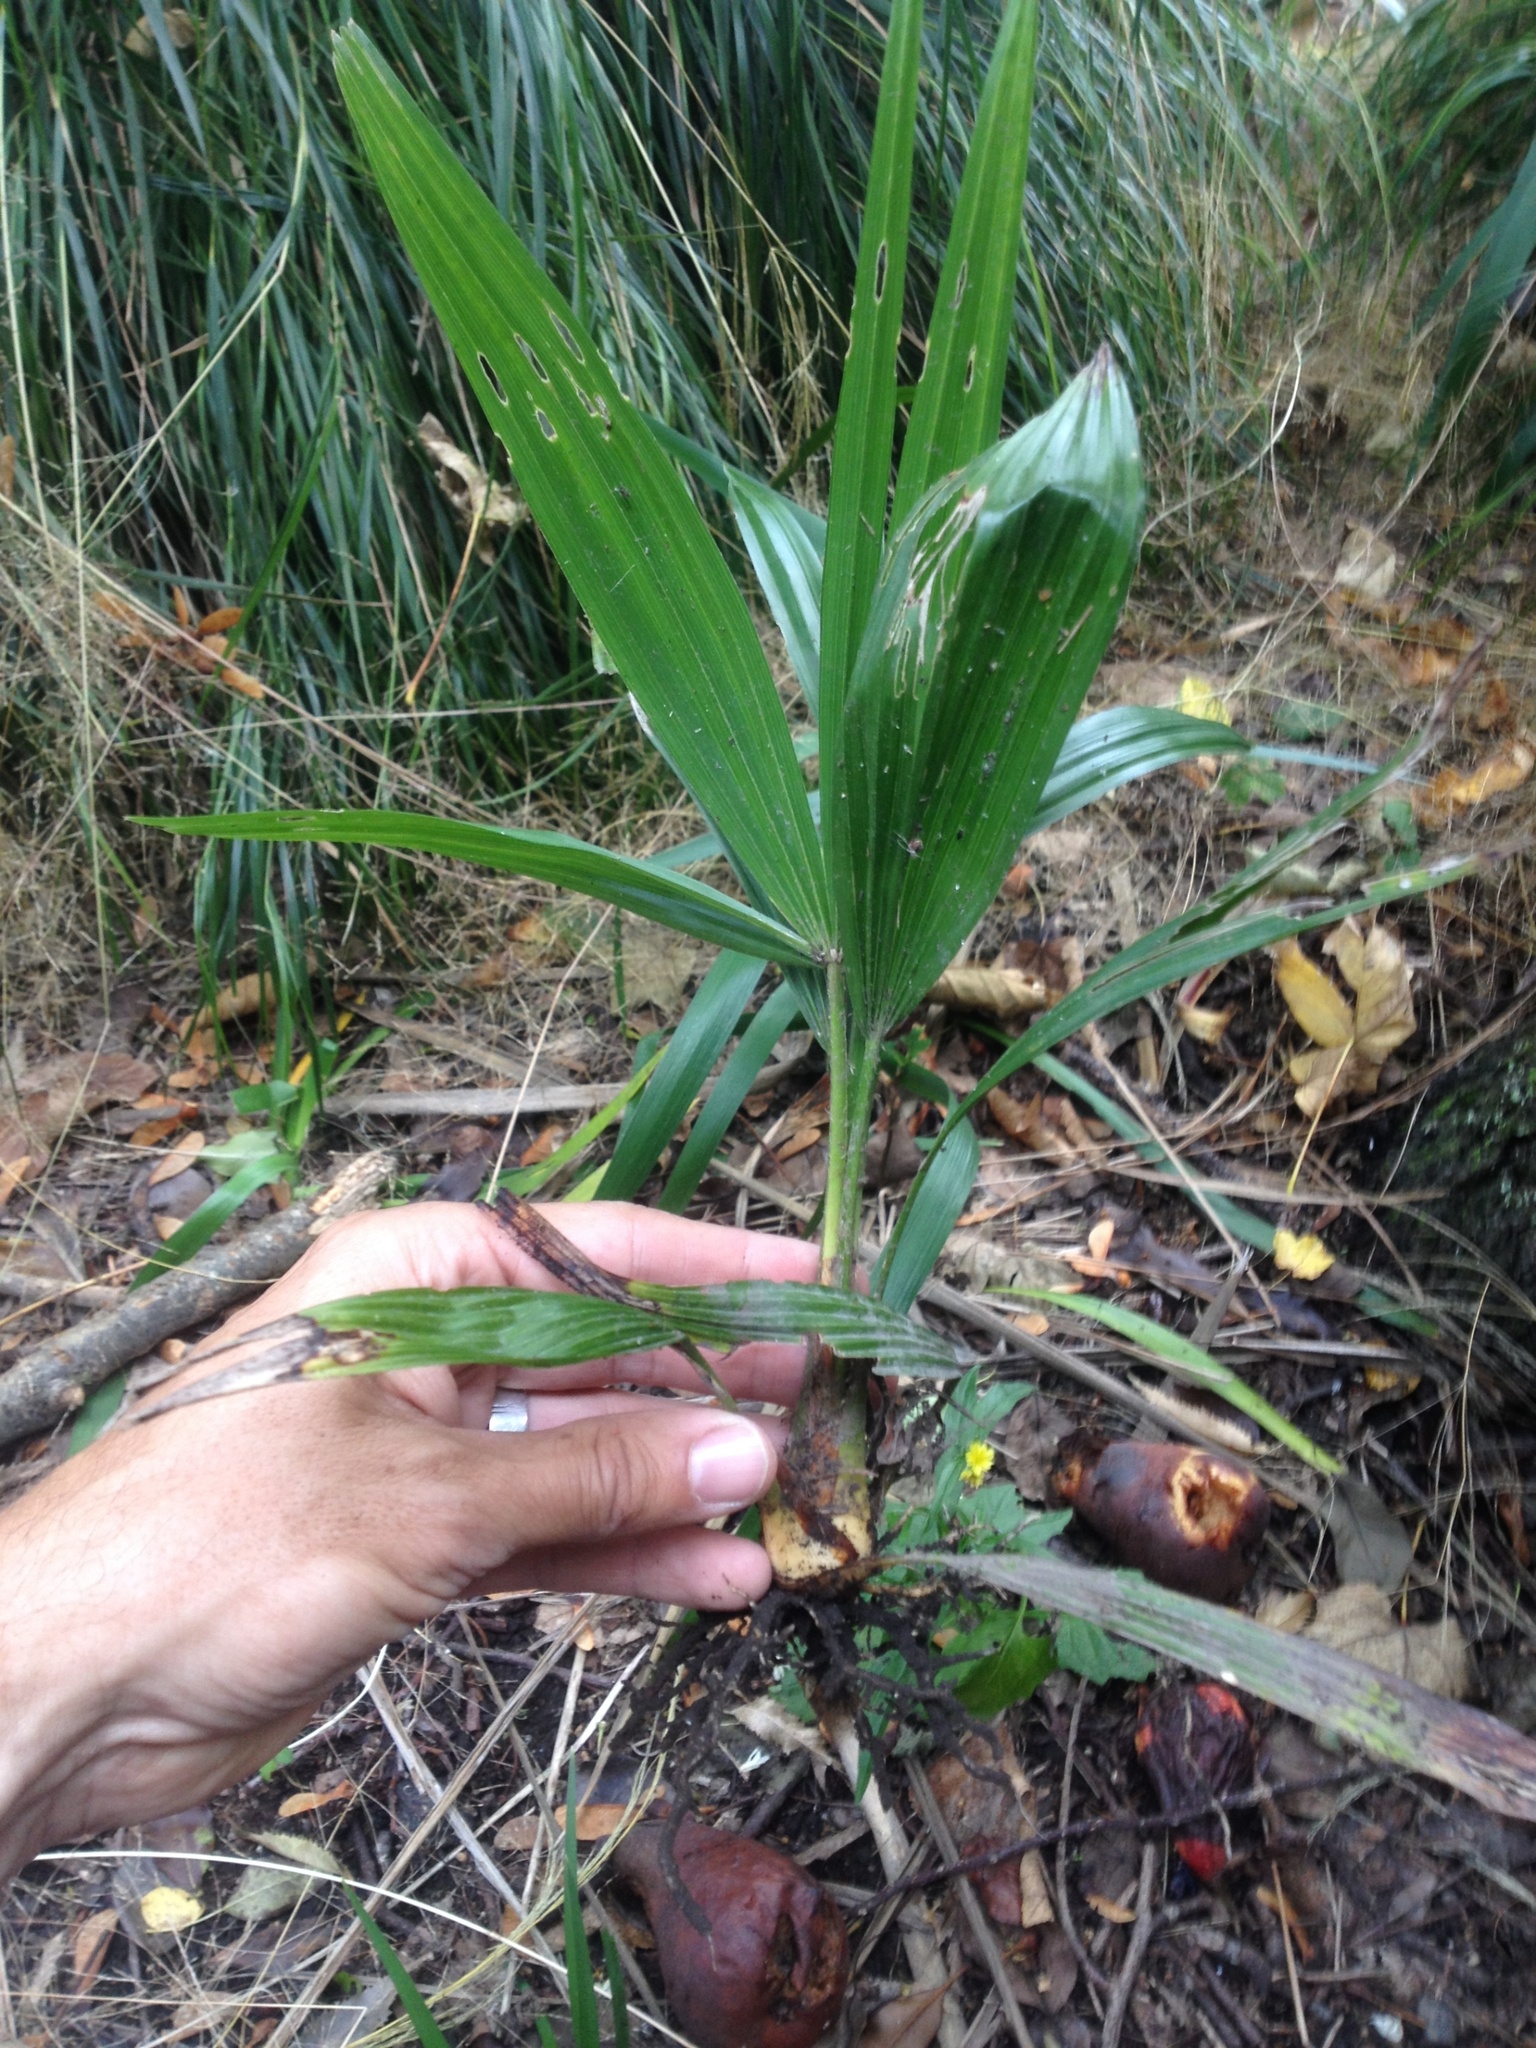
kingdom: Plantae
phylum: Tracheophyta
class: Liliopsida
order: Arecales
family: Arecaceae
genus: Trachycarpus
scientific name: Trachycarpus fortunei
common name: Chusan palm
